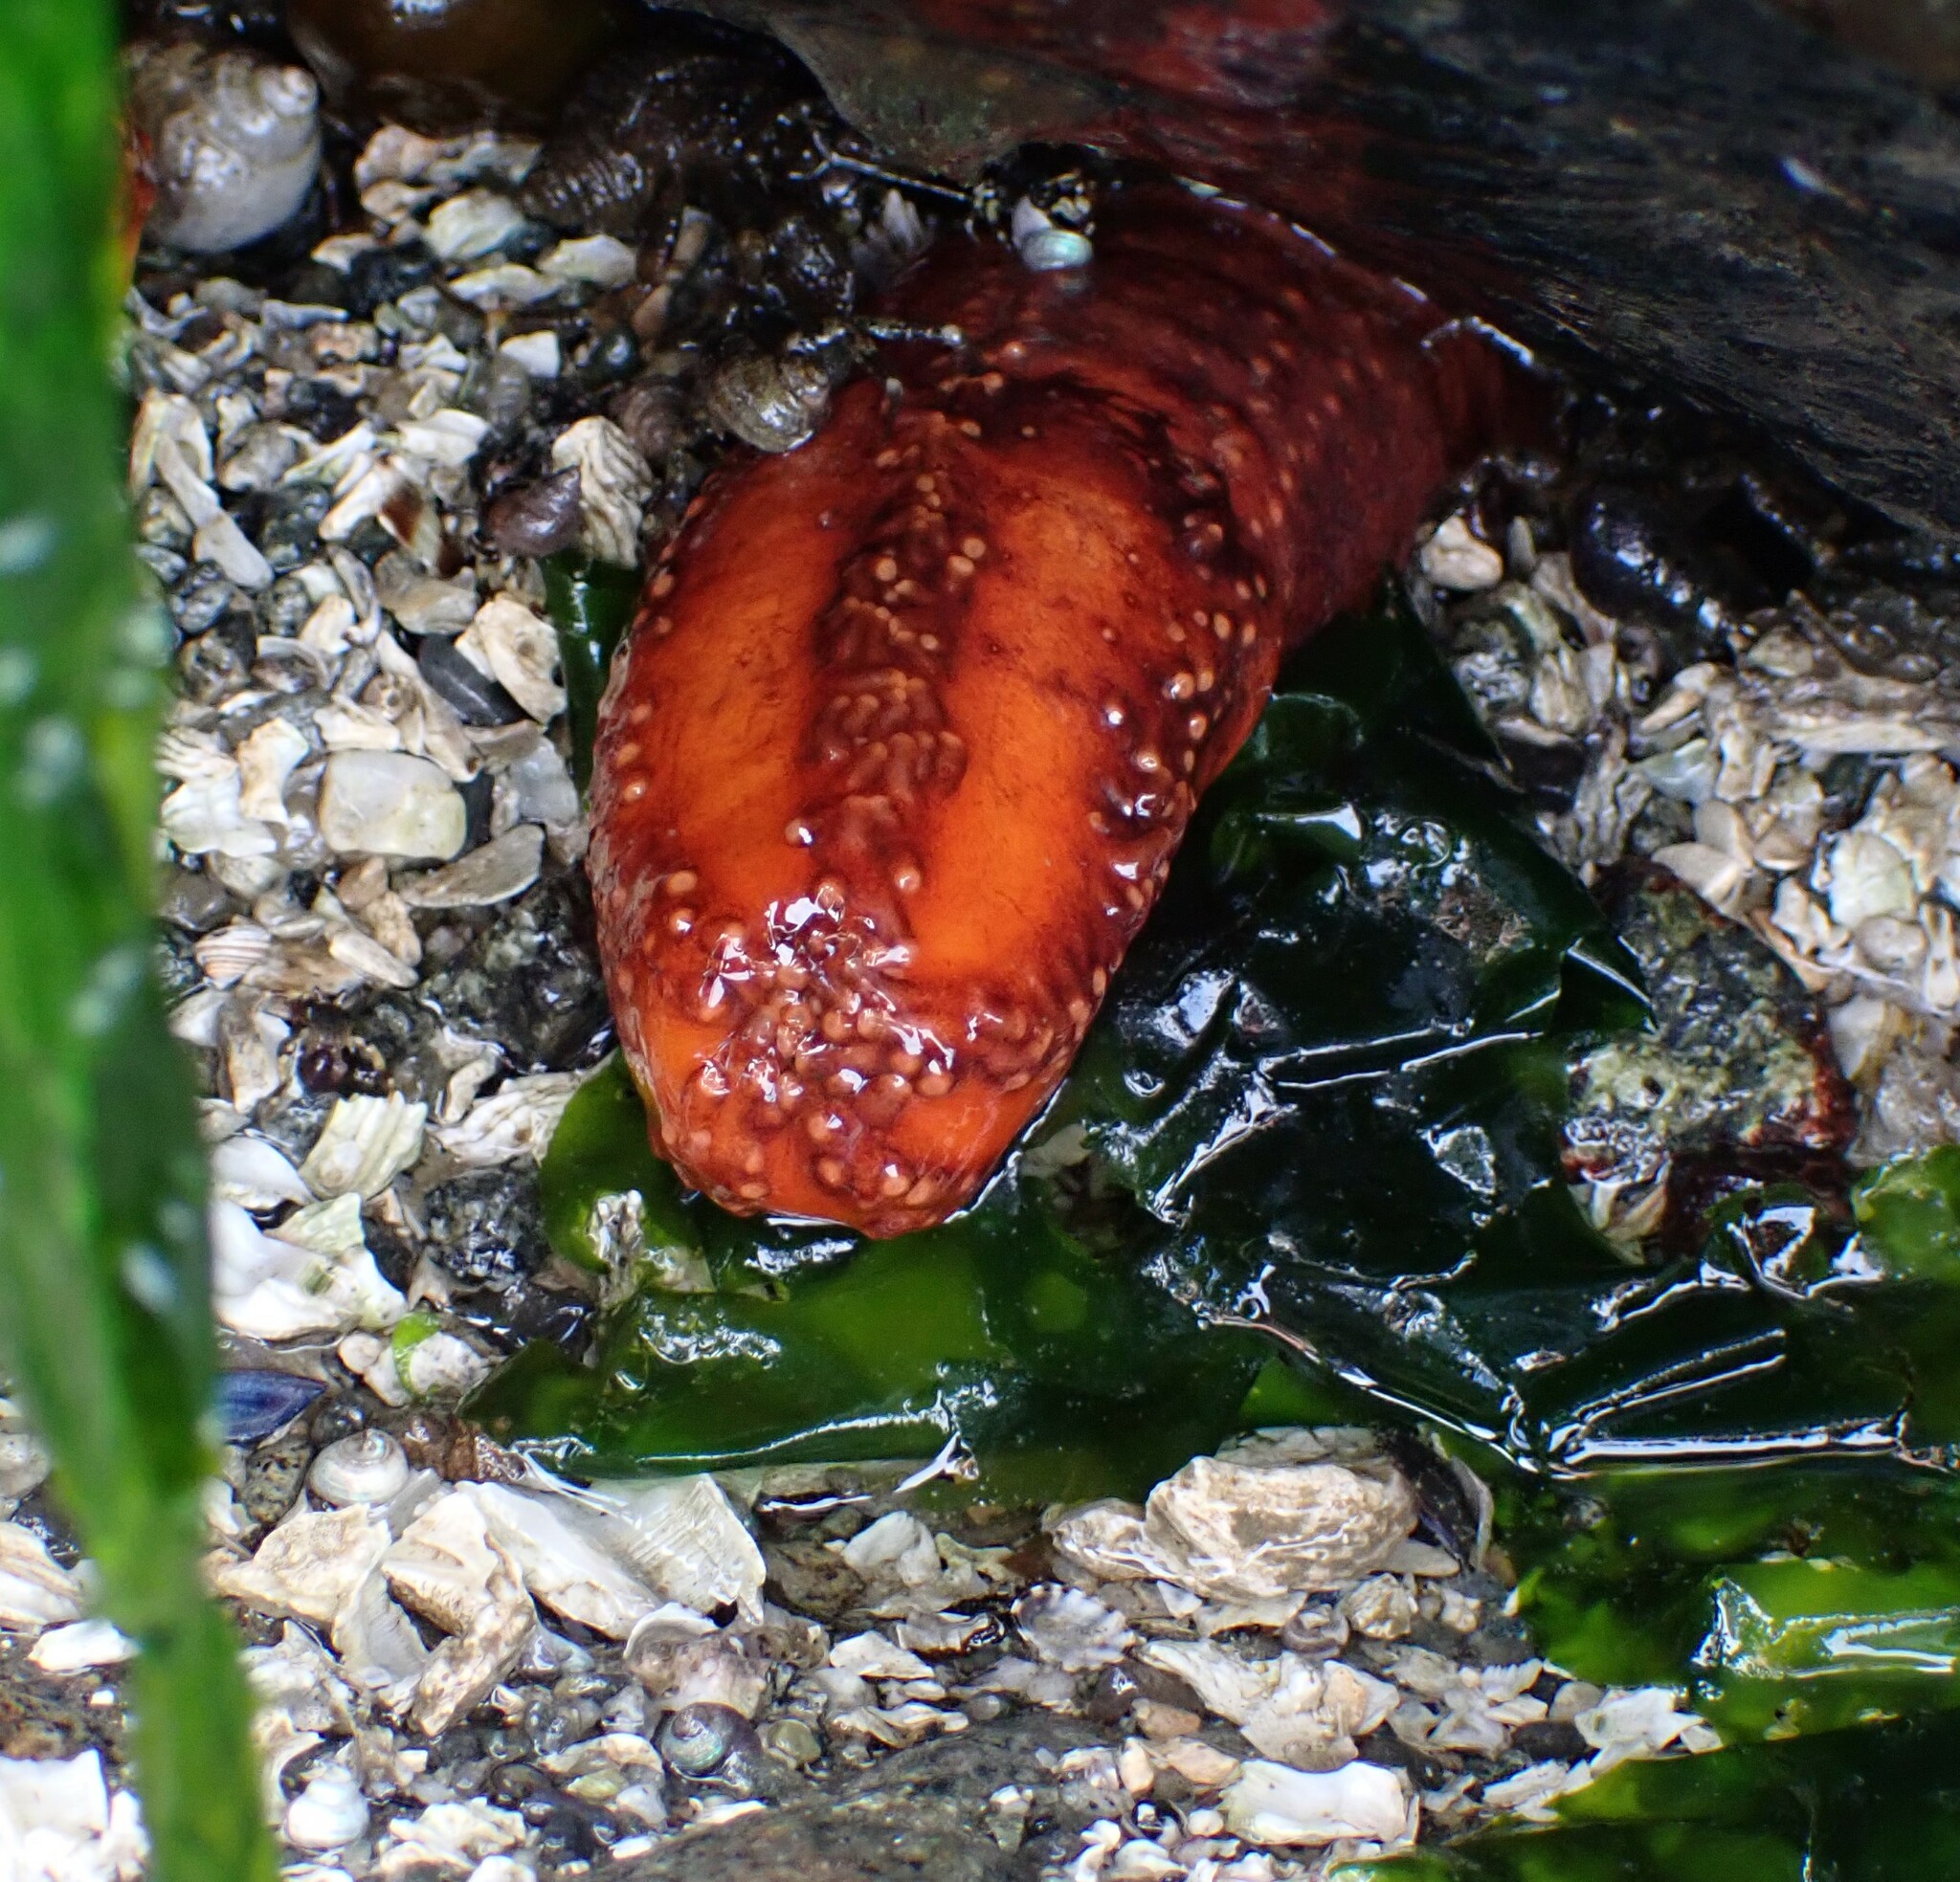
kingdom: Animalia
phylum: Echinodermata
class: Holothuroidea
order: Dendrochirotida
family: Cucumariidae
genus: Cucumaria
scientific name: Cucumaria miniata
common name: Orange sea cucumber
